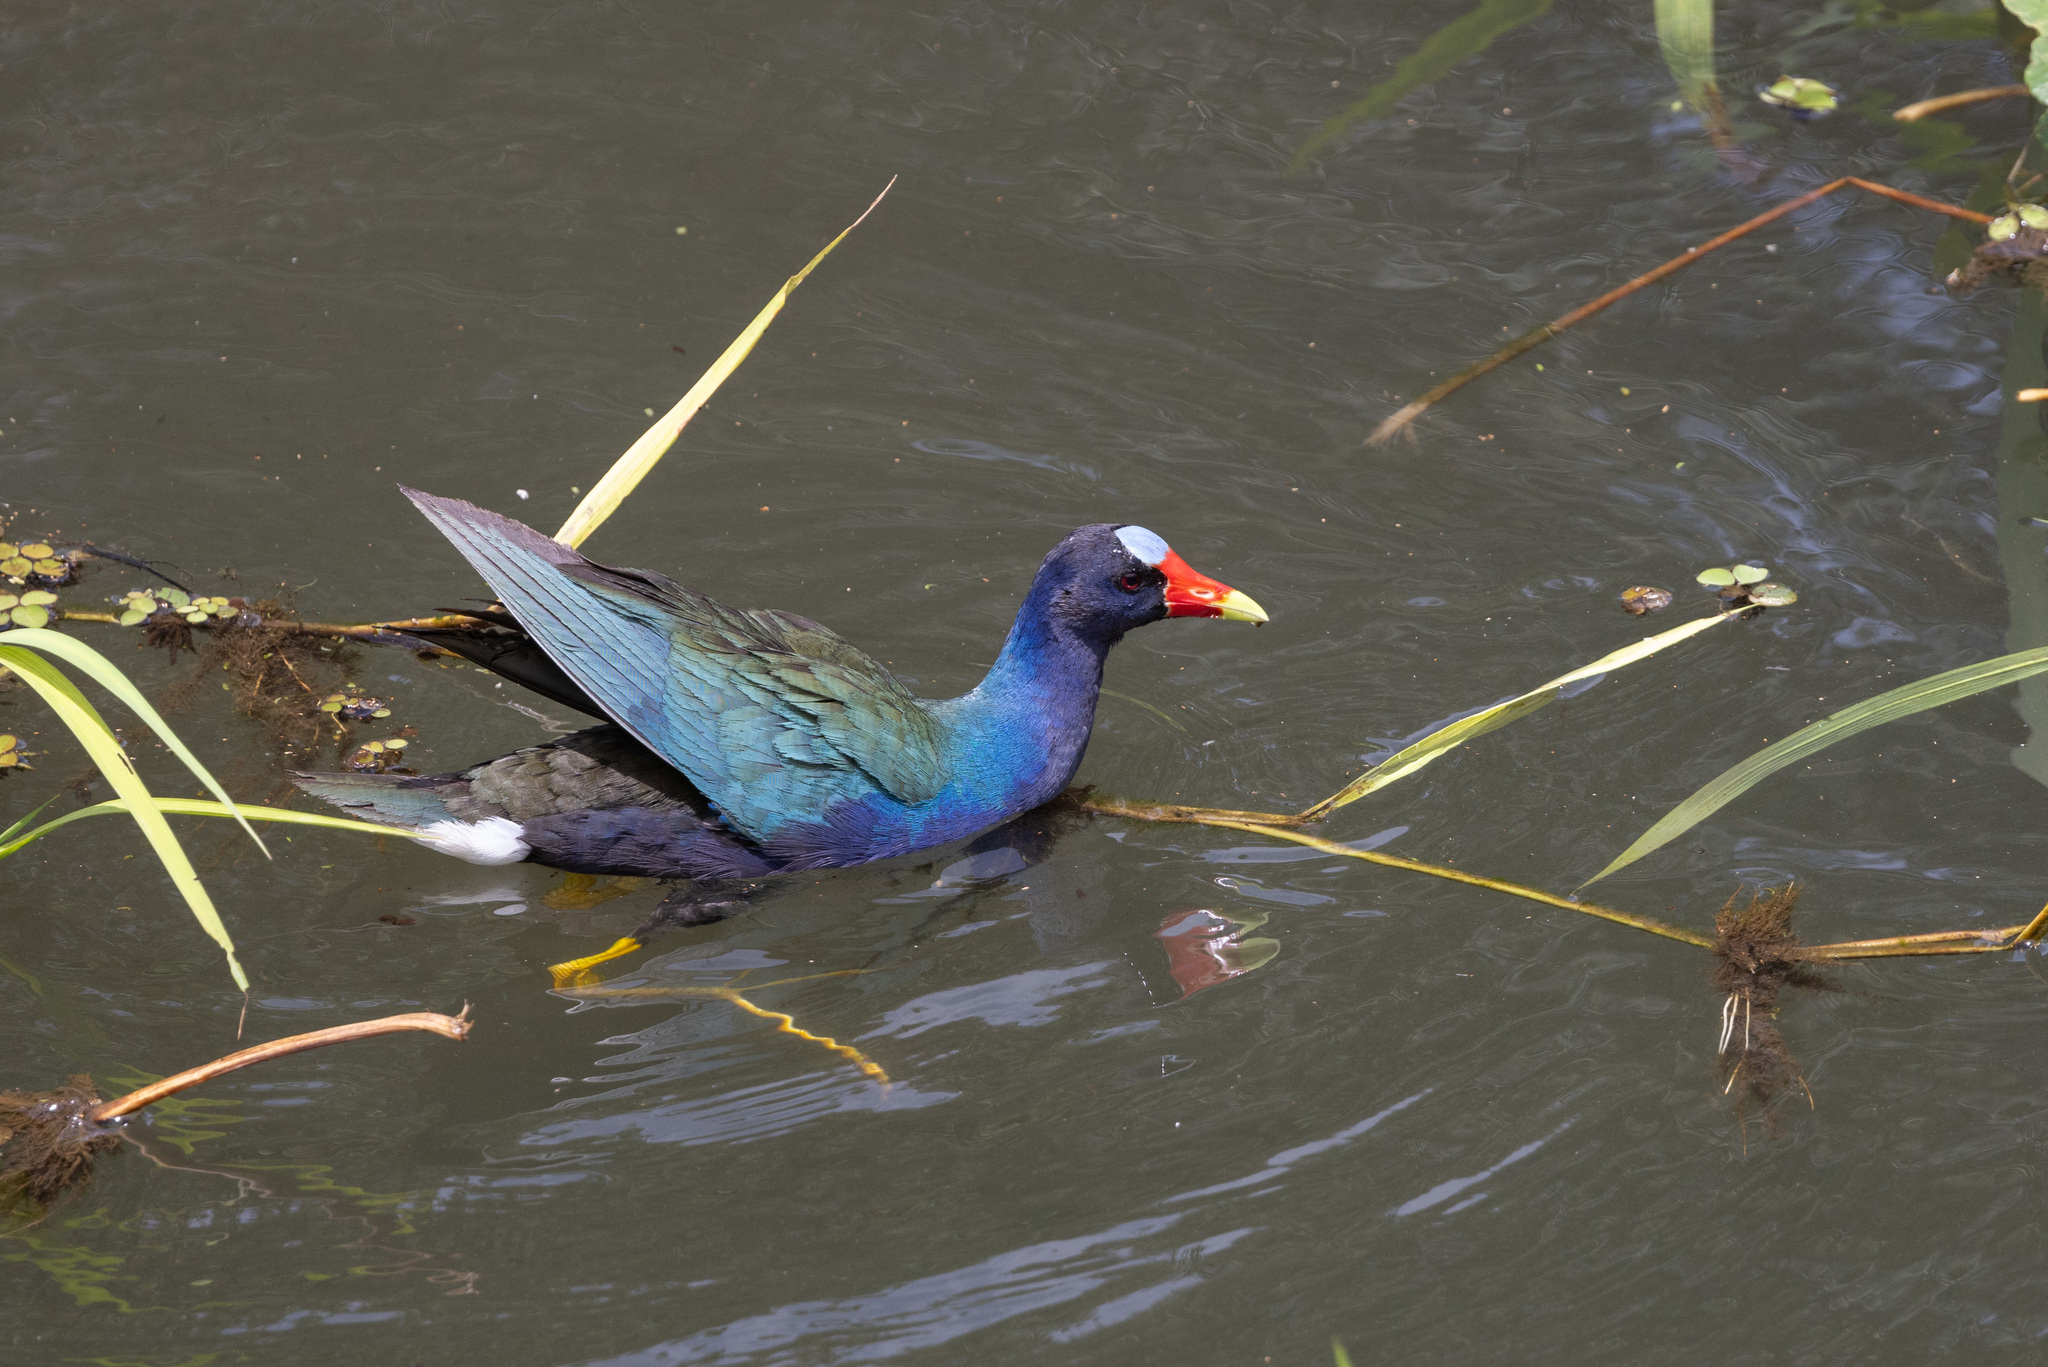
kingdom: Animalia
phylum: Chordata
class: Aves
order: Gruiformes
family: Rallidae
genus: Porphyrio
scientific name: Porphyrio martinica
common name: Purple gallinule
